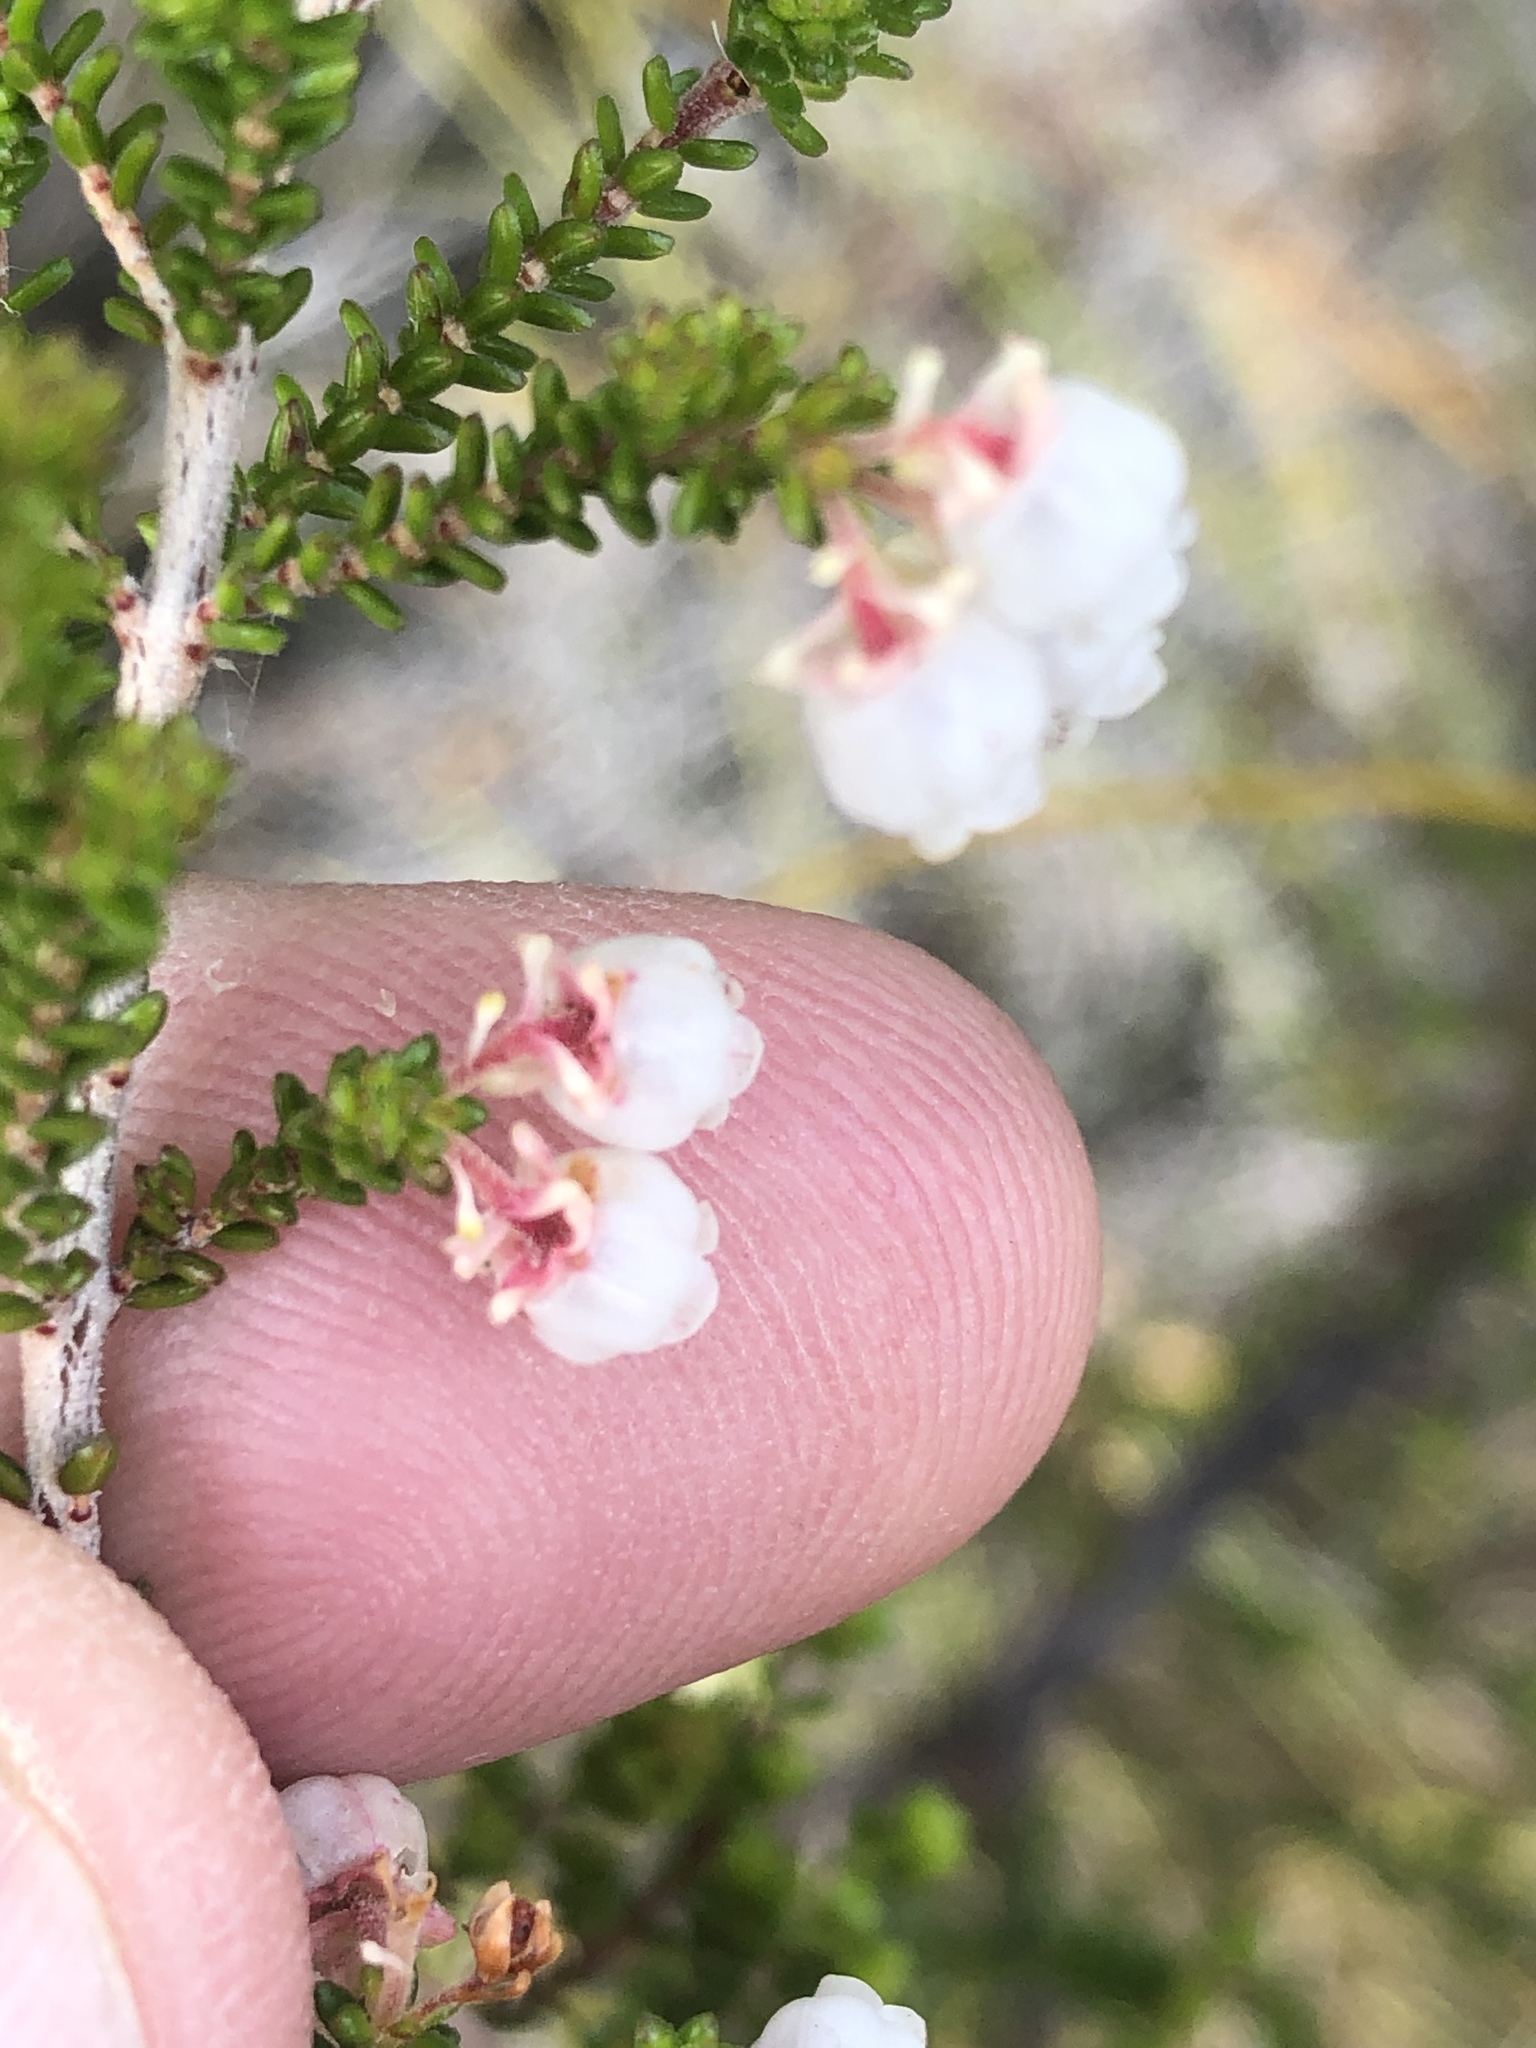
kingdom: Plantae
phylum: Tracheophyta
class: Magnoliopsida
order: Ericales
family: Ericaceae
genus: Erica
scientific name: Erica formosa
